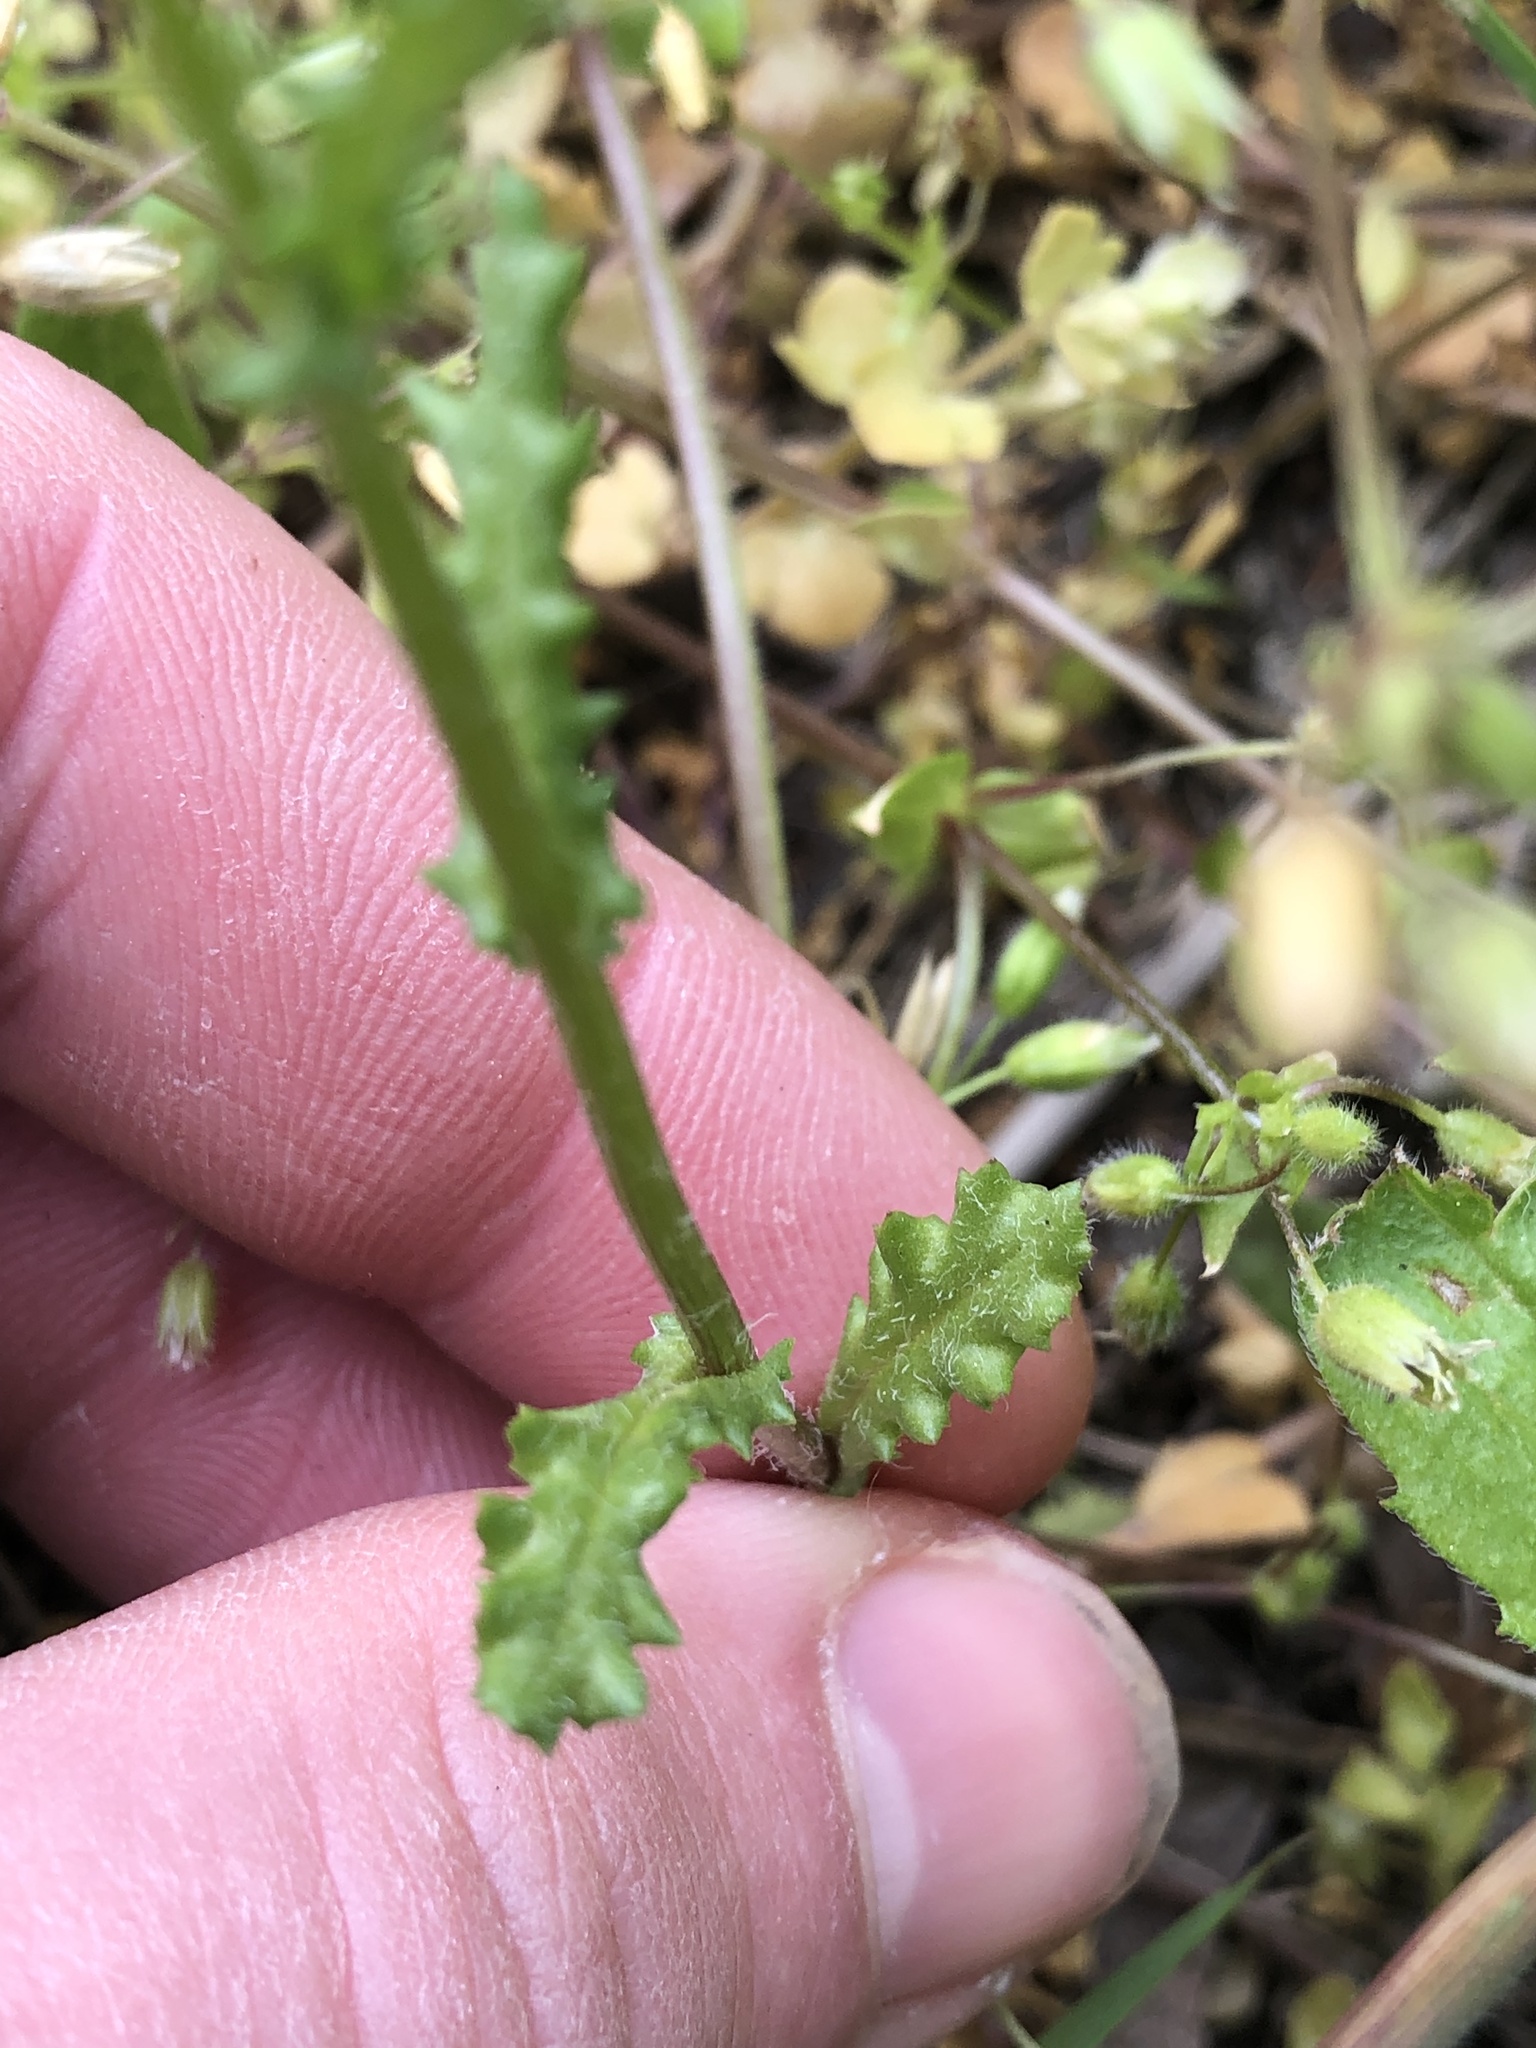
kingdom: Plantae
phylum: Tracheophyta
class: Magnoliopsida
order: Asterales
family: Asteraceae
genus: Senecio
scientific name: Senecio vernalis
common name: Eastern groundsel
